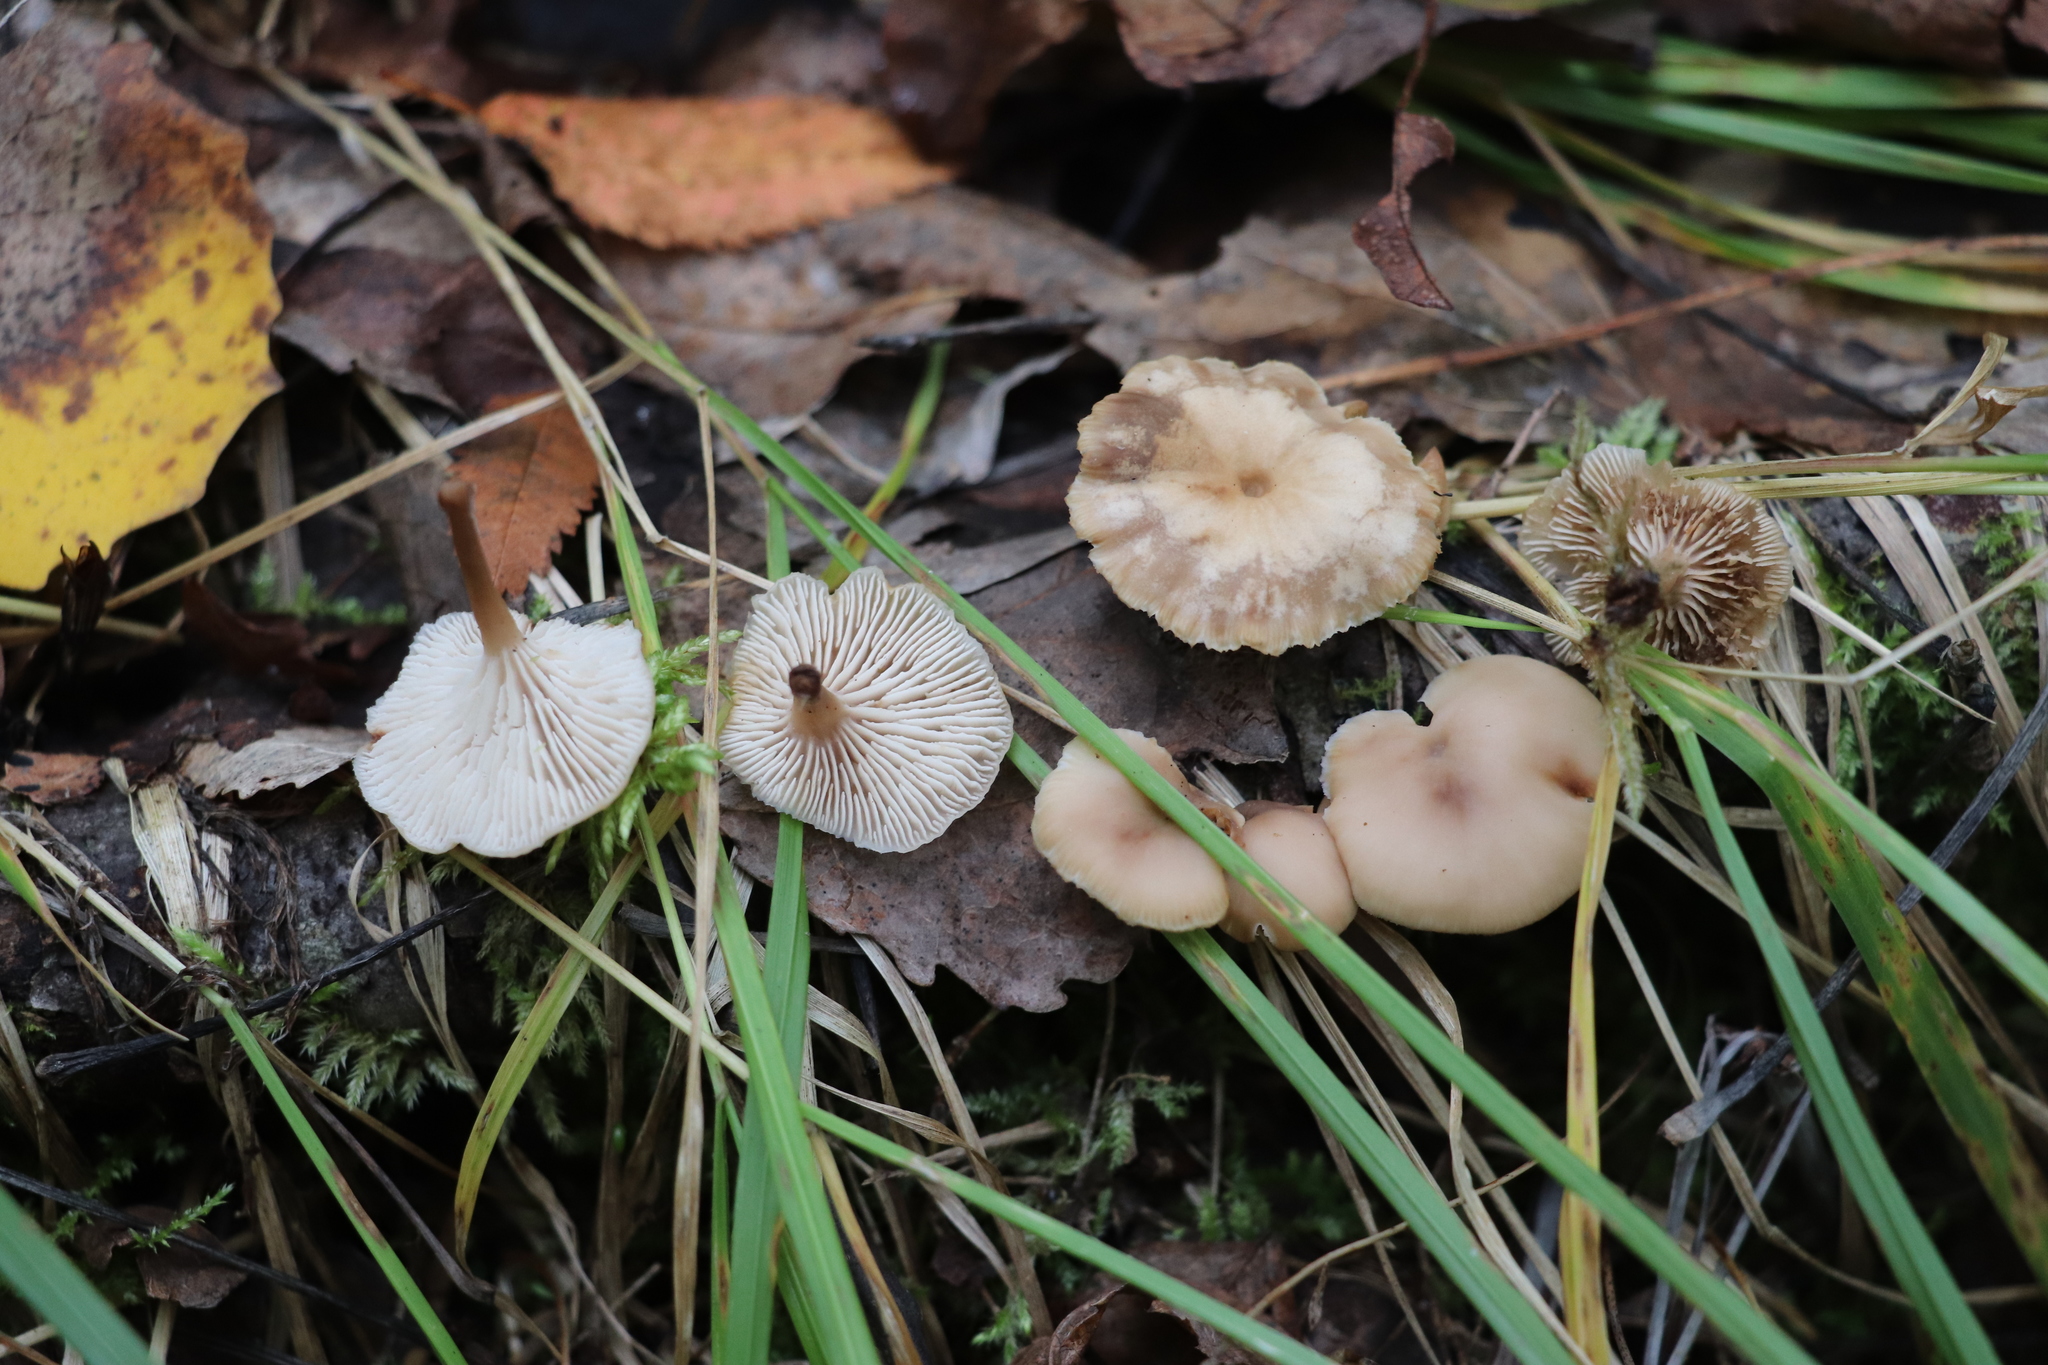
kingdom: Fungi
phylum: Basidiomycota
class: Agaricomycetes
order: Russulales
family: Auriscalpiaceae
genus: Lentinellus
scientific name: Lentinellus micheneri
